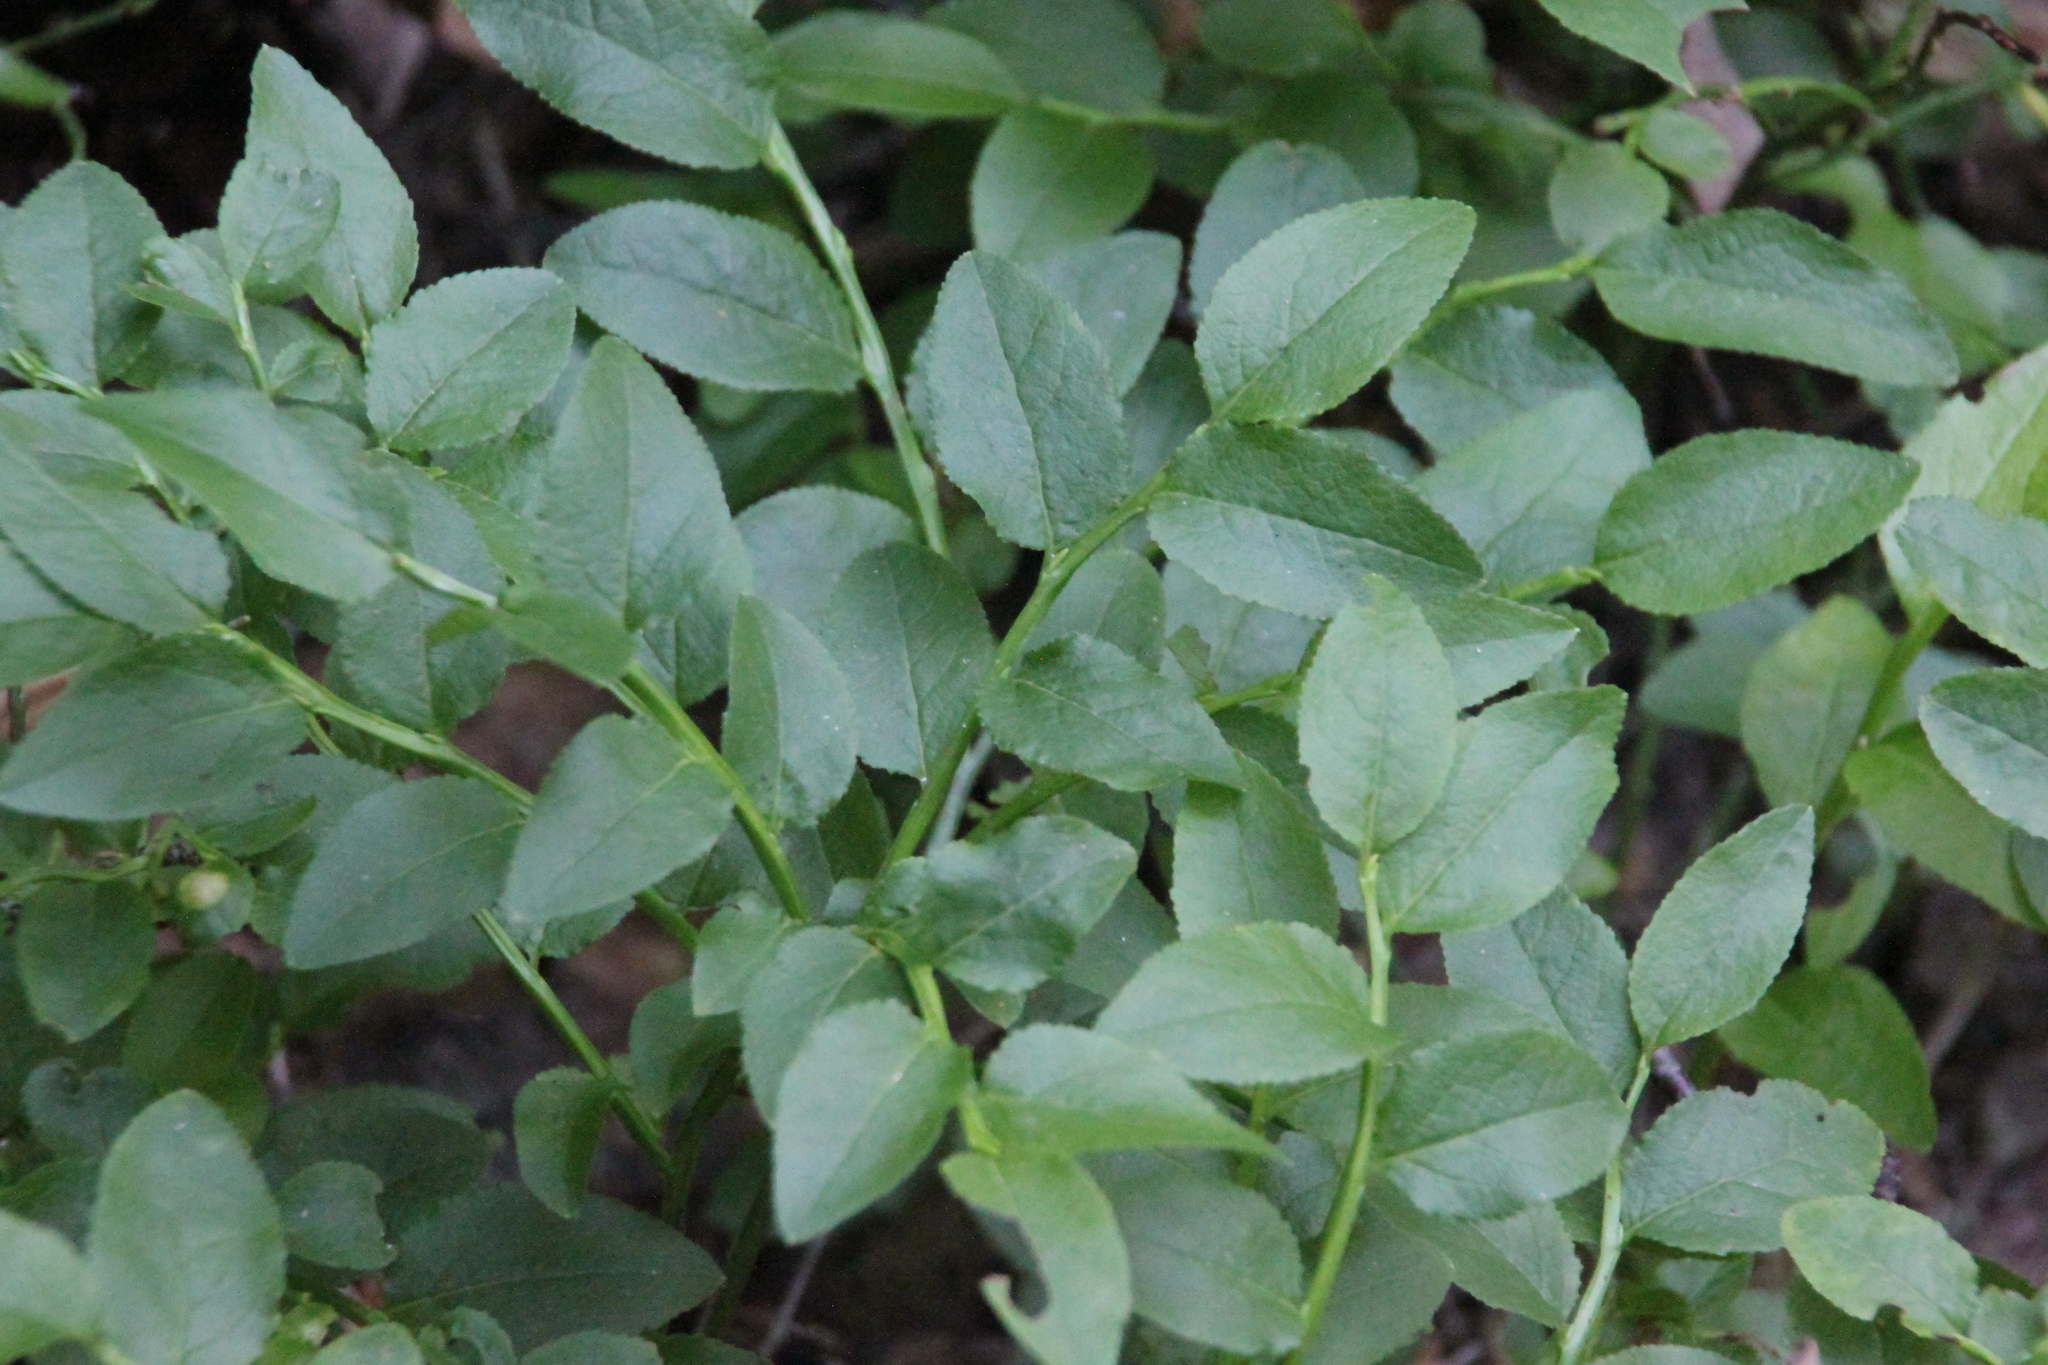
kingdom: Plantae
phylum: Tracheophyta
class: Magnoliopsida
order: Ericales
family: Ericaceae
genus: Vaccinium
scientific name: Vaccinium myrtillus
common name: Bilberry
